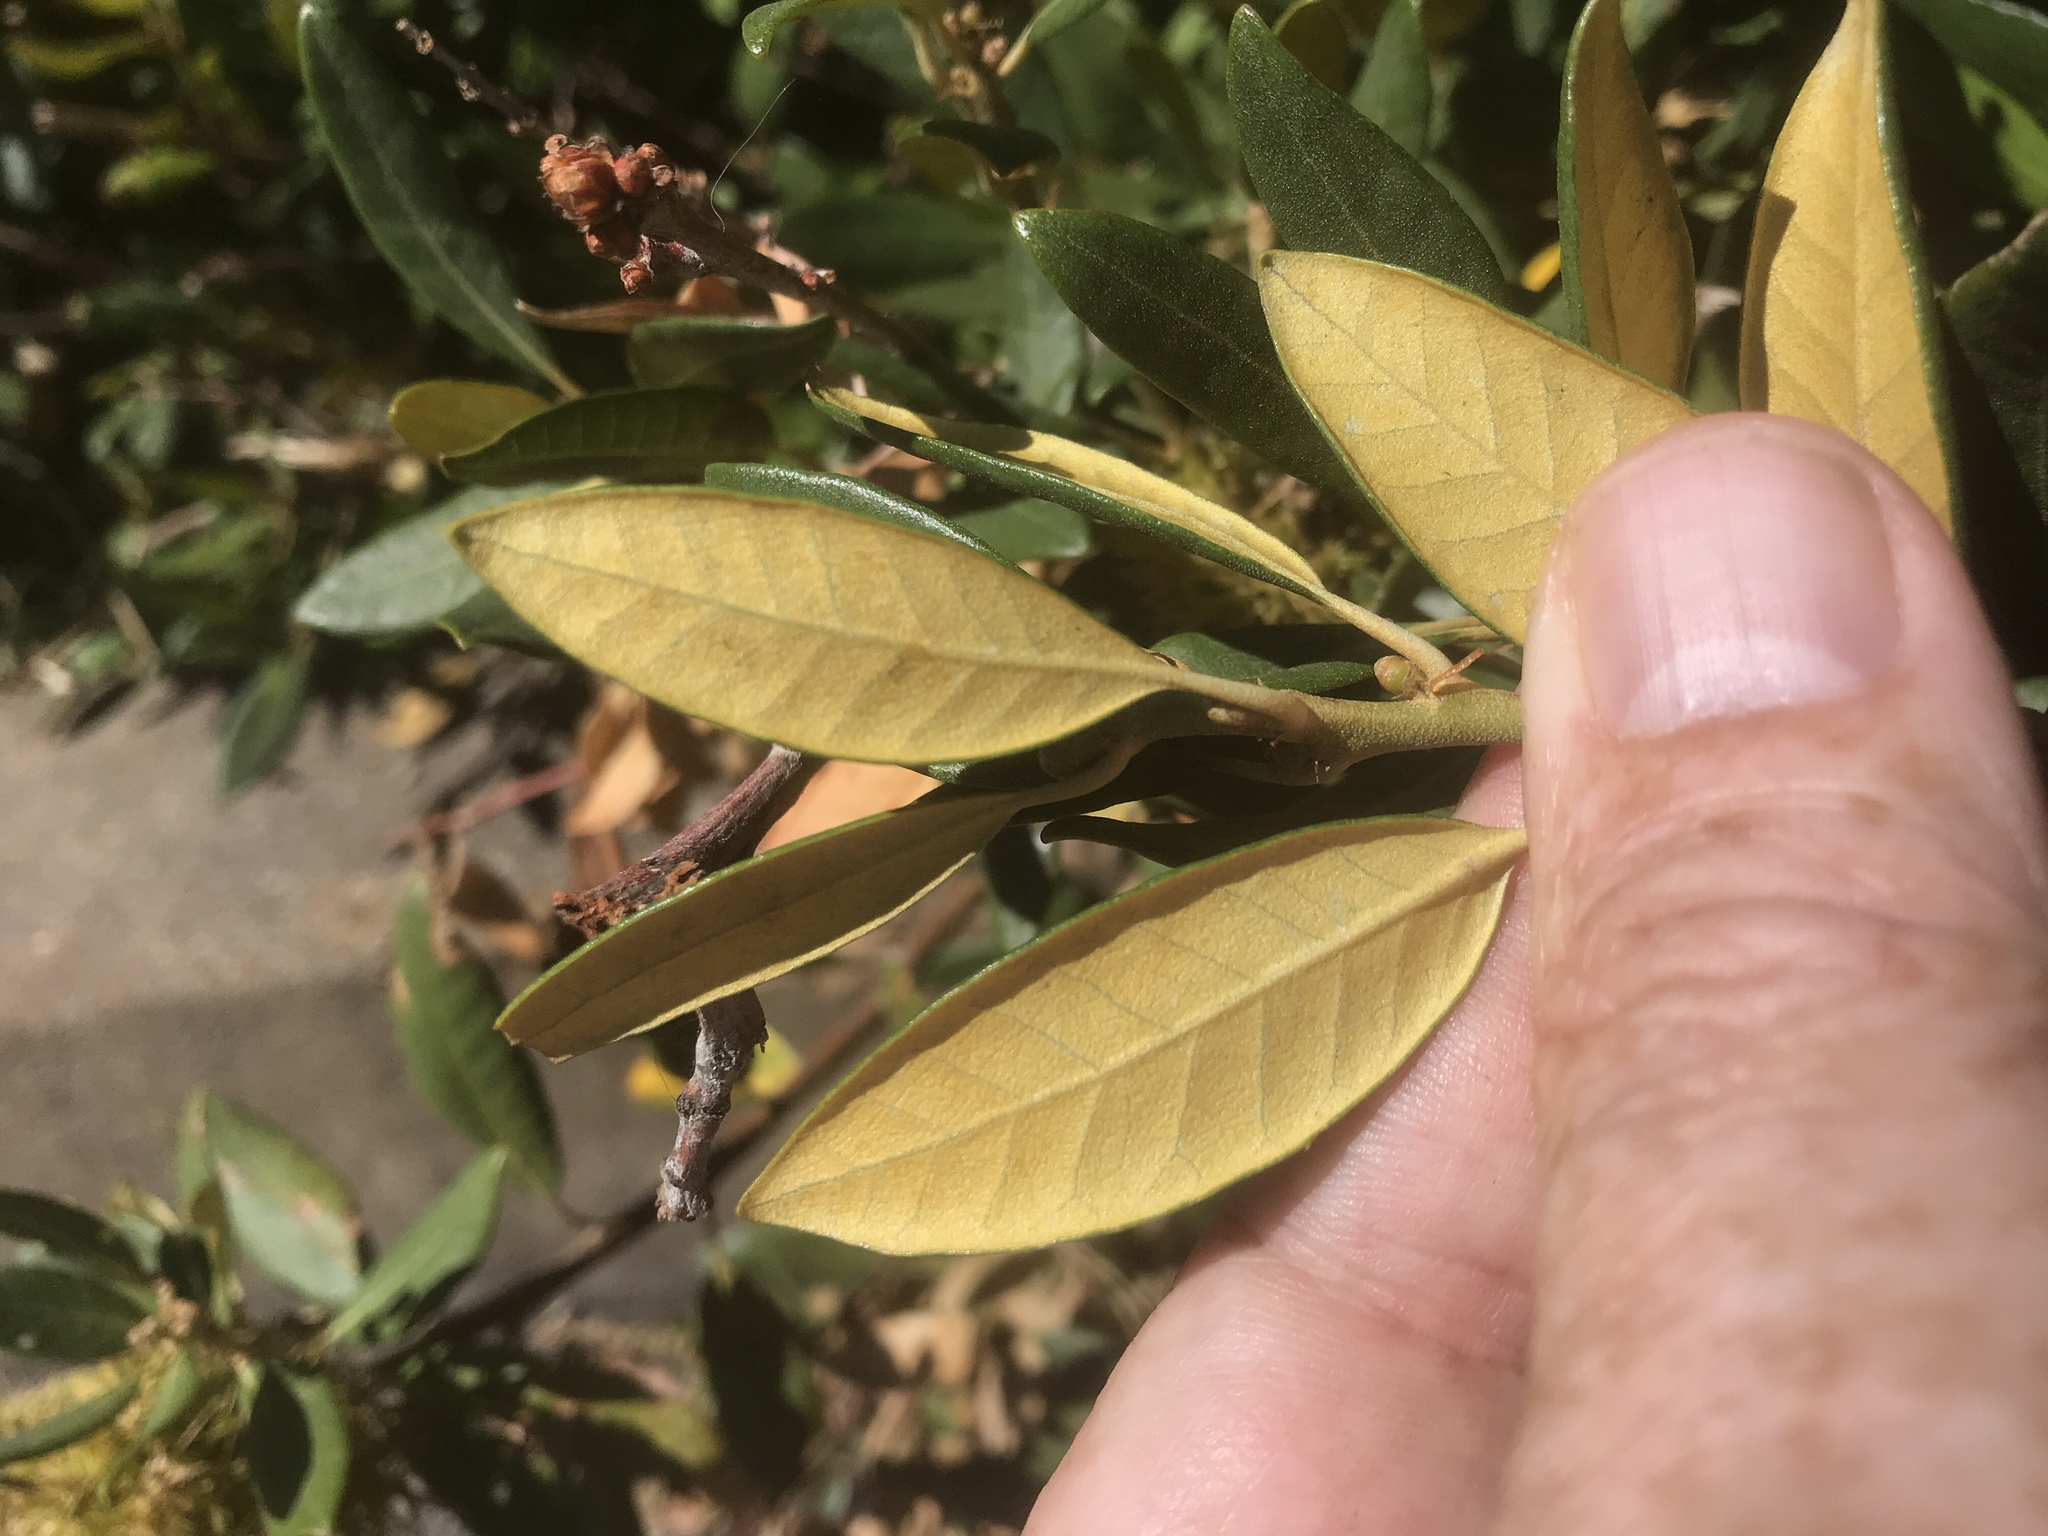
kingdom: Plantae
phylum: Tracheophyta
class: Magnoliopsida
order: Fagales
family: Fagaceae
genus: Chrysolepis
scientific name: Chrysolepis sempervirens
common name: Bush chinquapin
